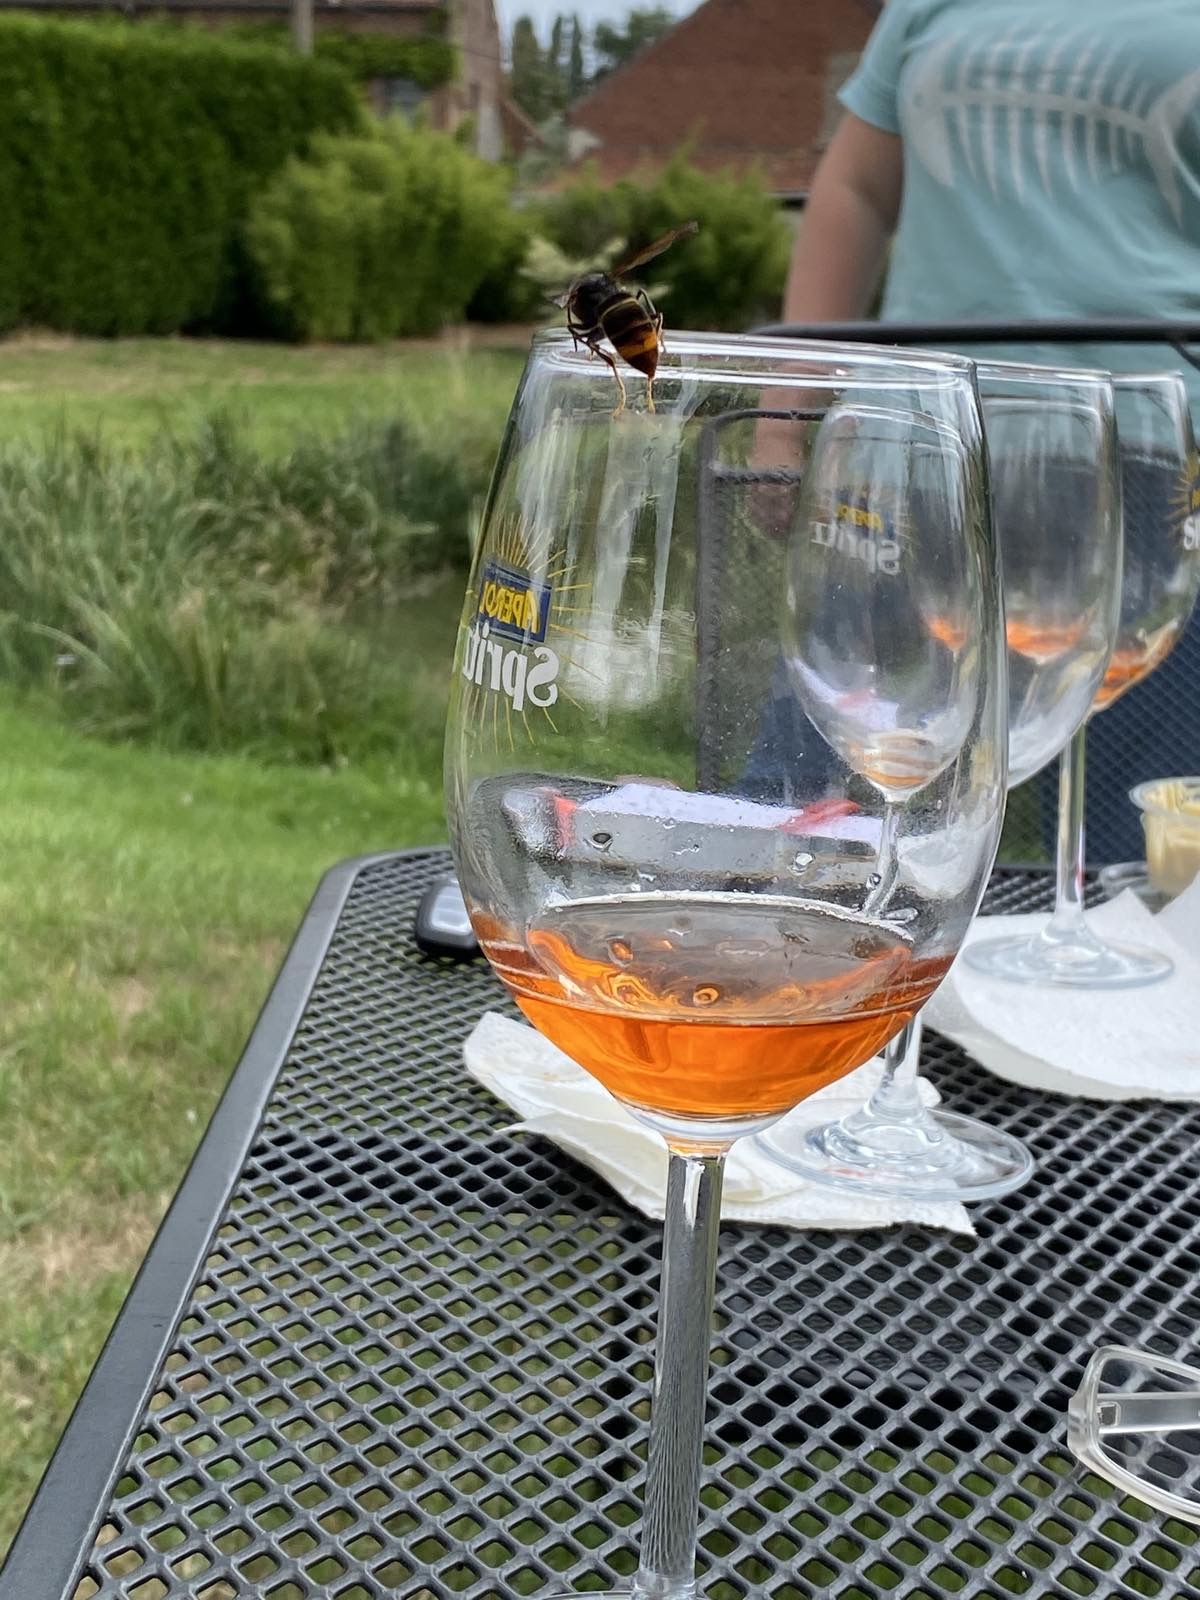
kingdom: Animalia
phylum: Arthropoda
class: Insecta
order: Hymenoptera
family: Vespidae
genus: Vespa
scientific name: Vespa velutina
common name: Asian hornet
